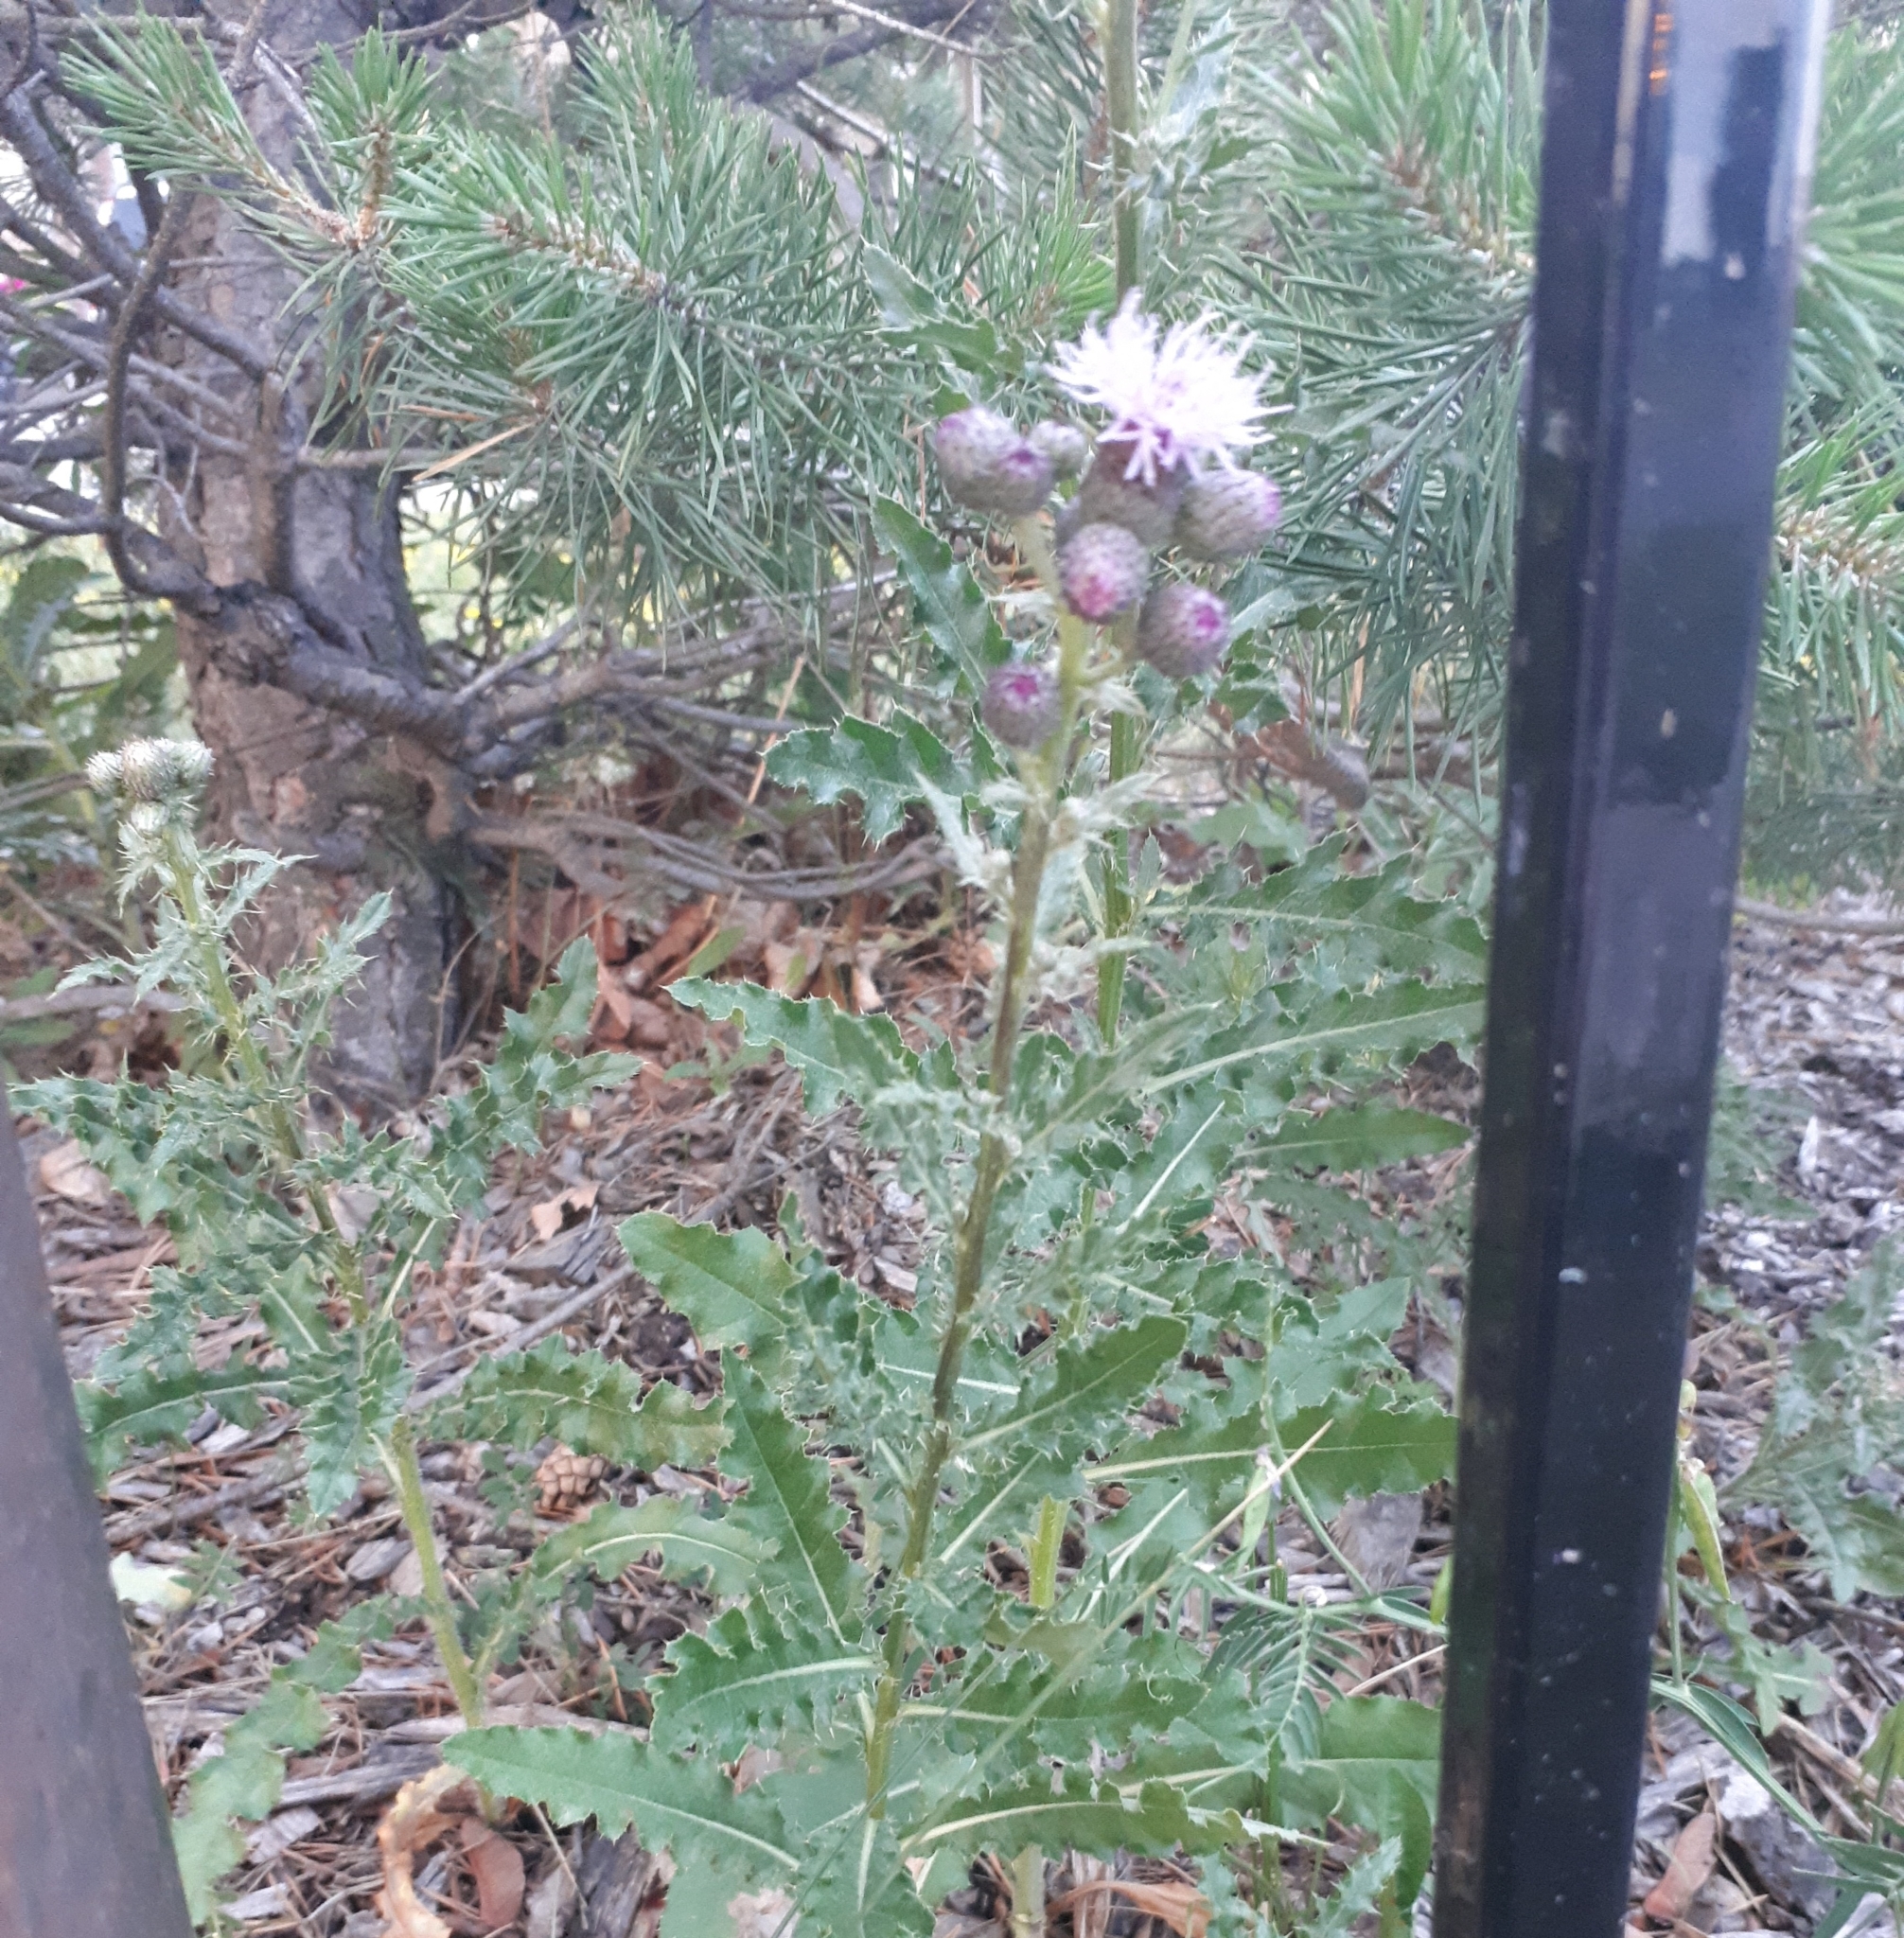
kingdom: Plantae
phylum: Tracheophyta
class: Magnoliopsida
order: Asterales
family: Asteraceae
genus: Cirsium
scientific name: Cirsium arvense
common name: Creeping thistle
